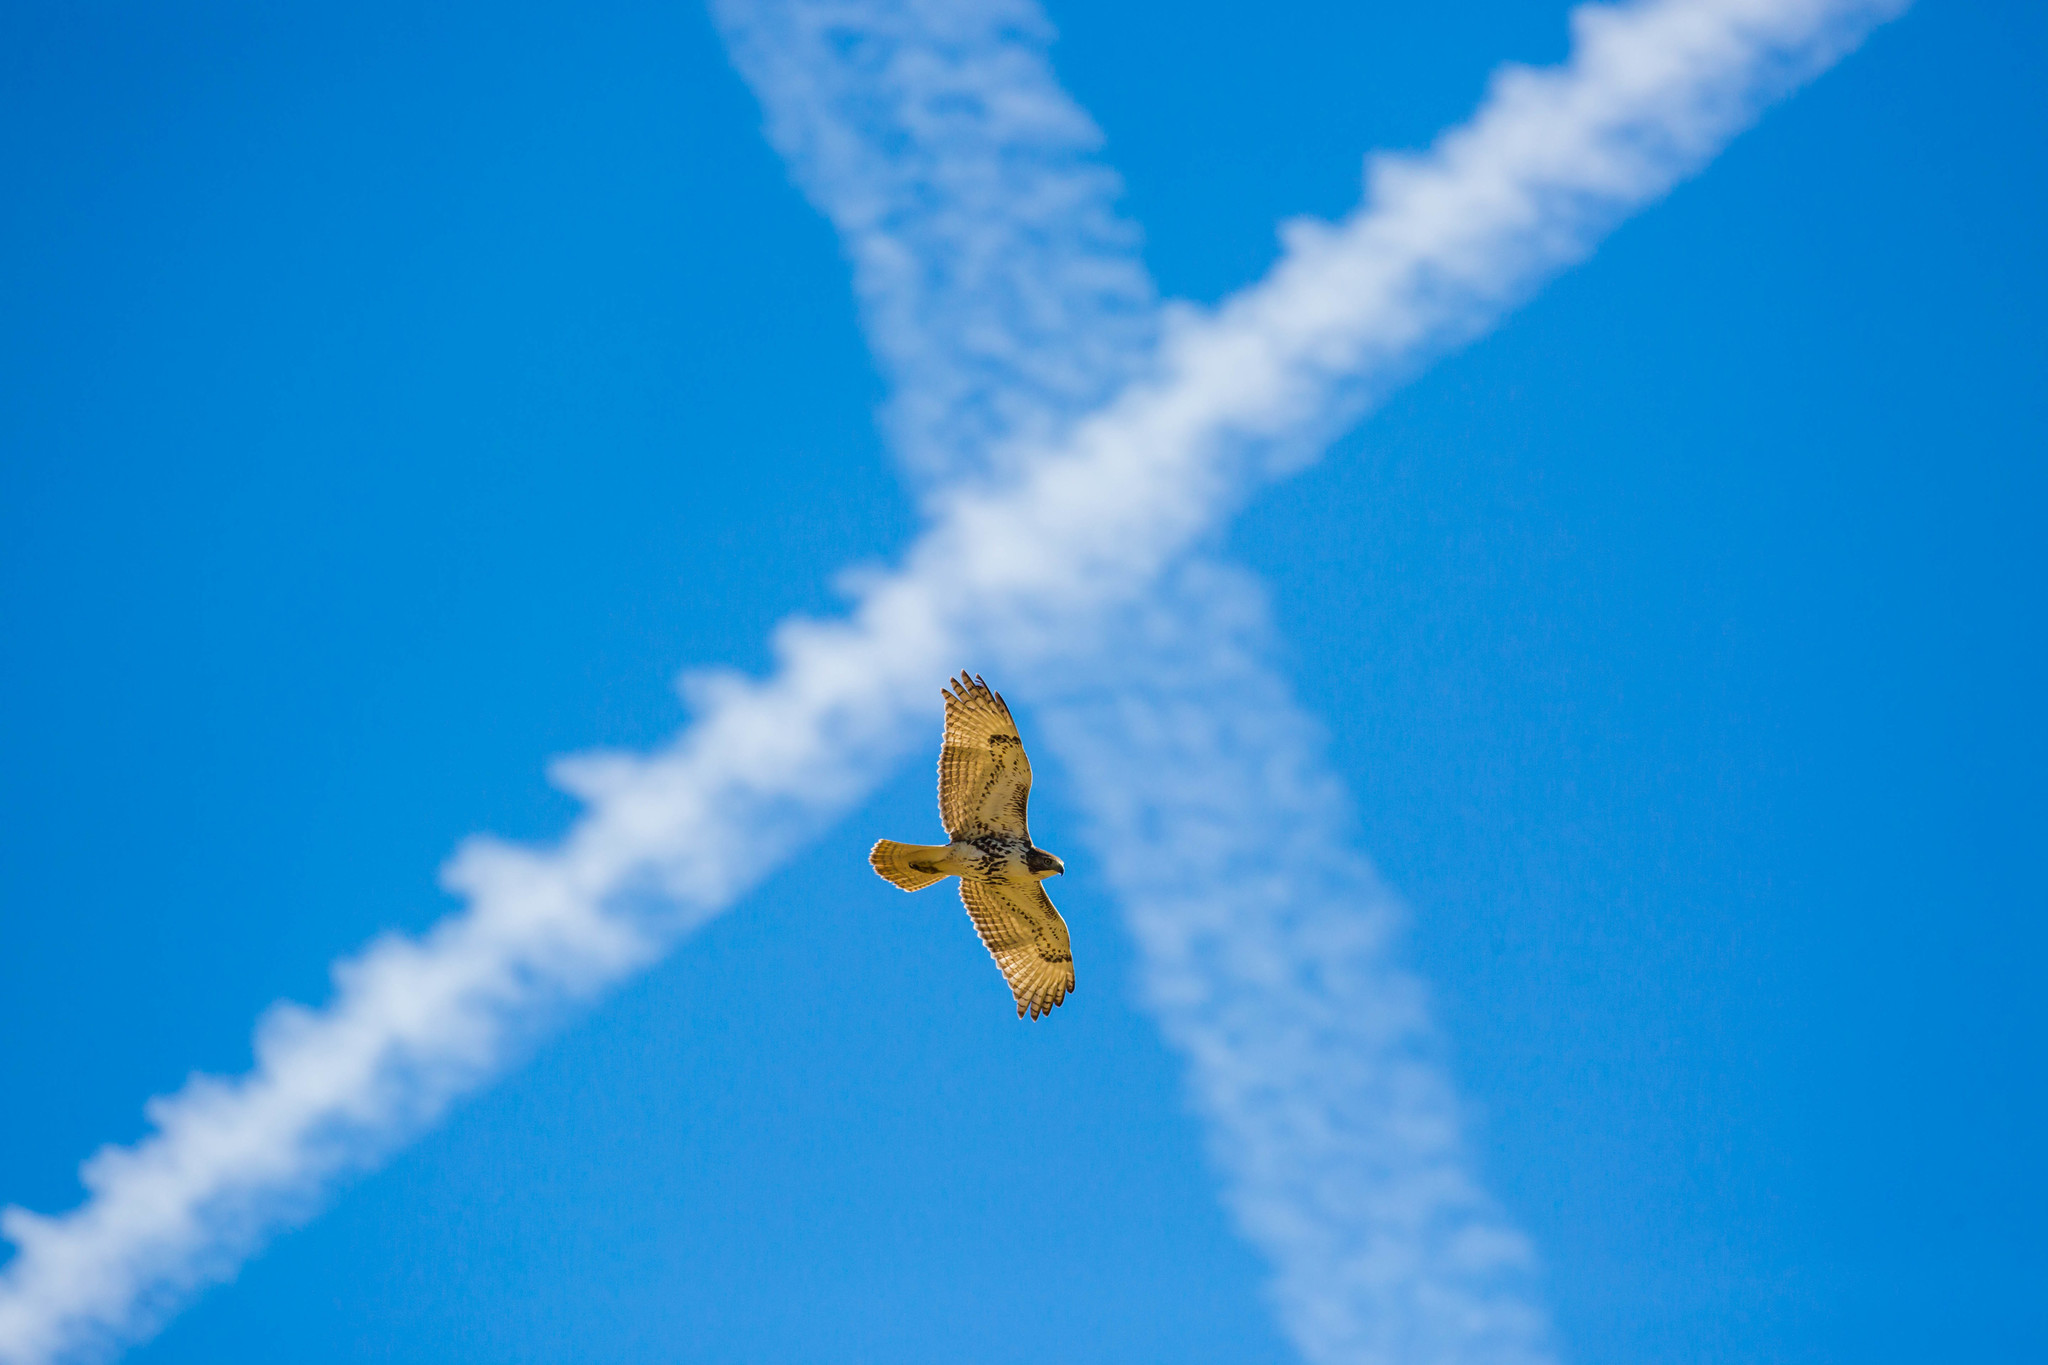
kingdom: Animalia
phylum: Chordata
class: Aves
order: Accipitriformes
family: Accipitridae
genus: Buteo
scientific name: Buteo jamaicensis
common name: Red-tailed hawk
